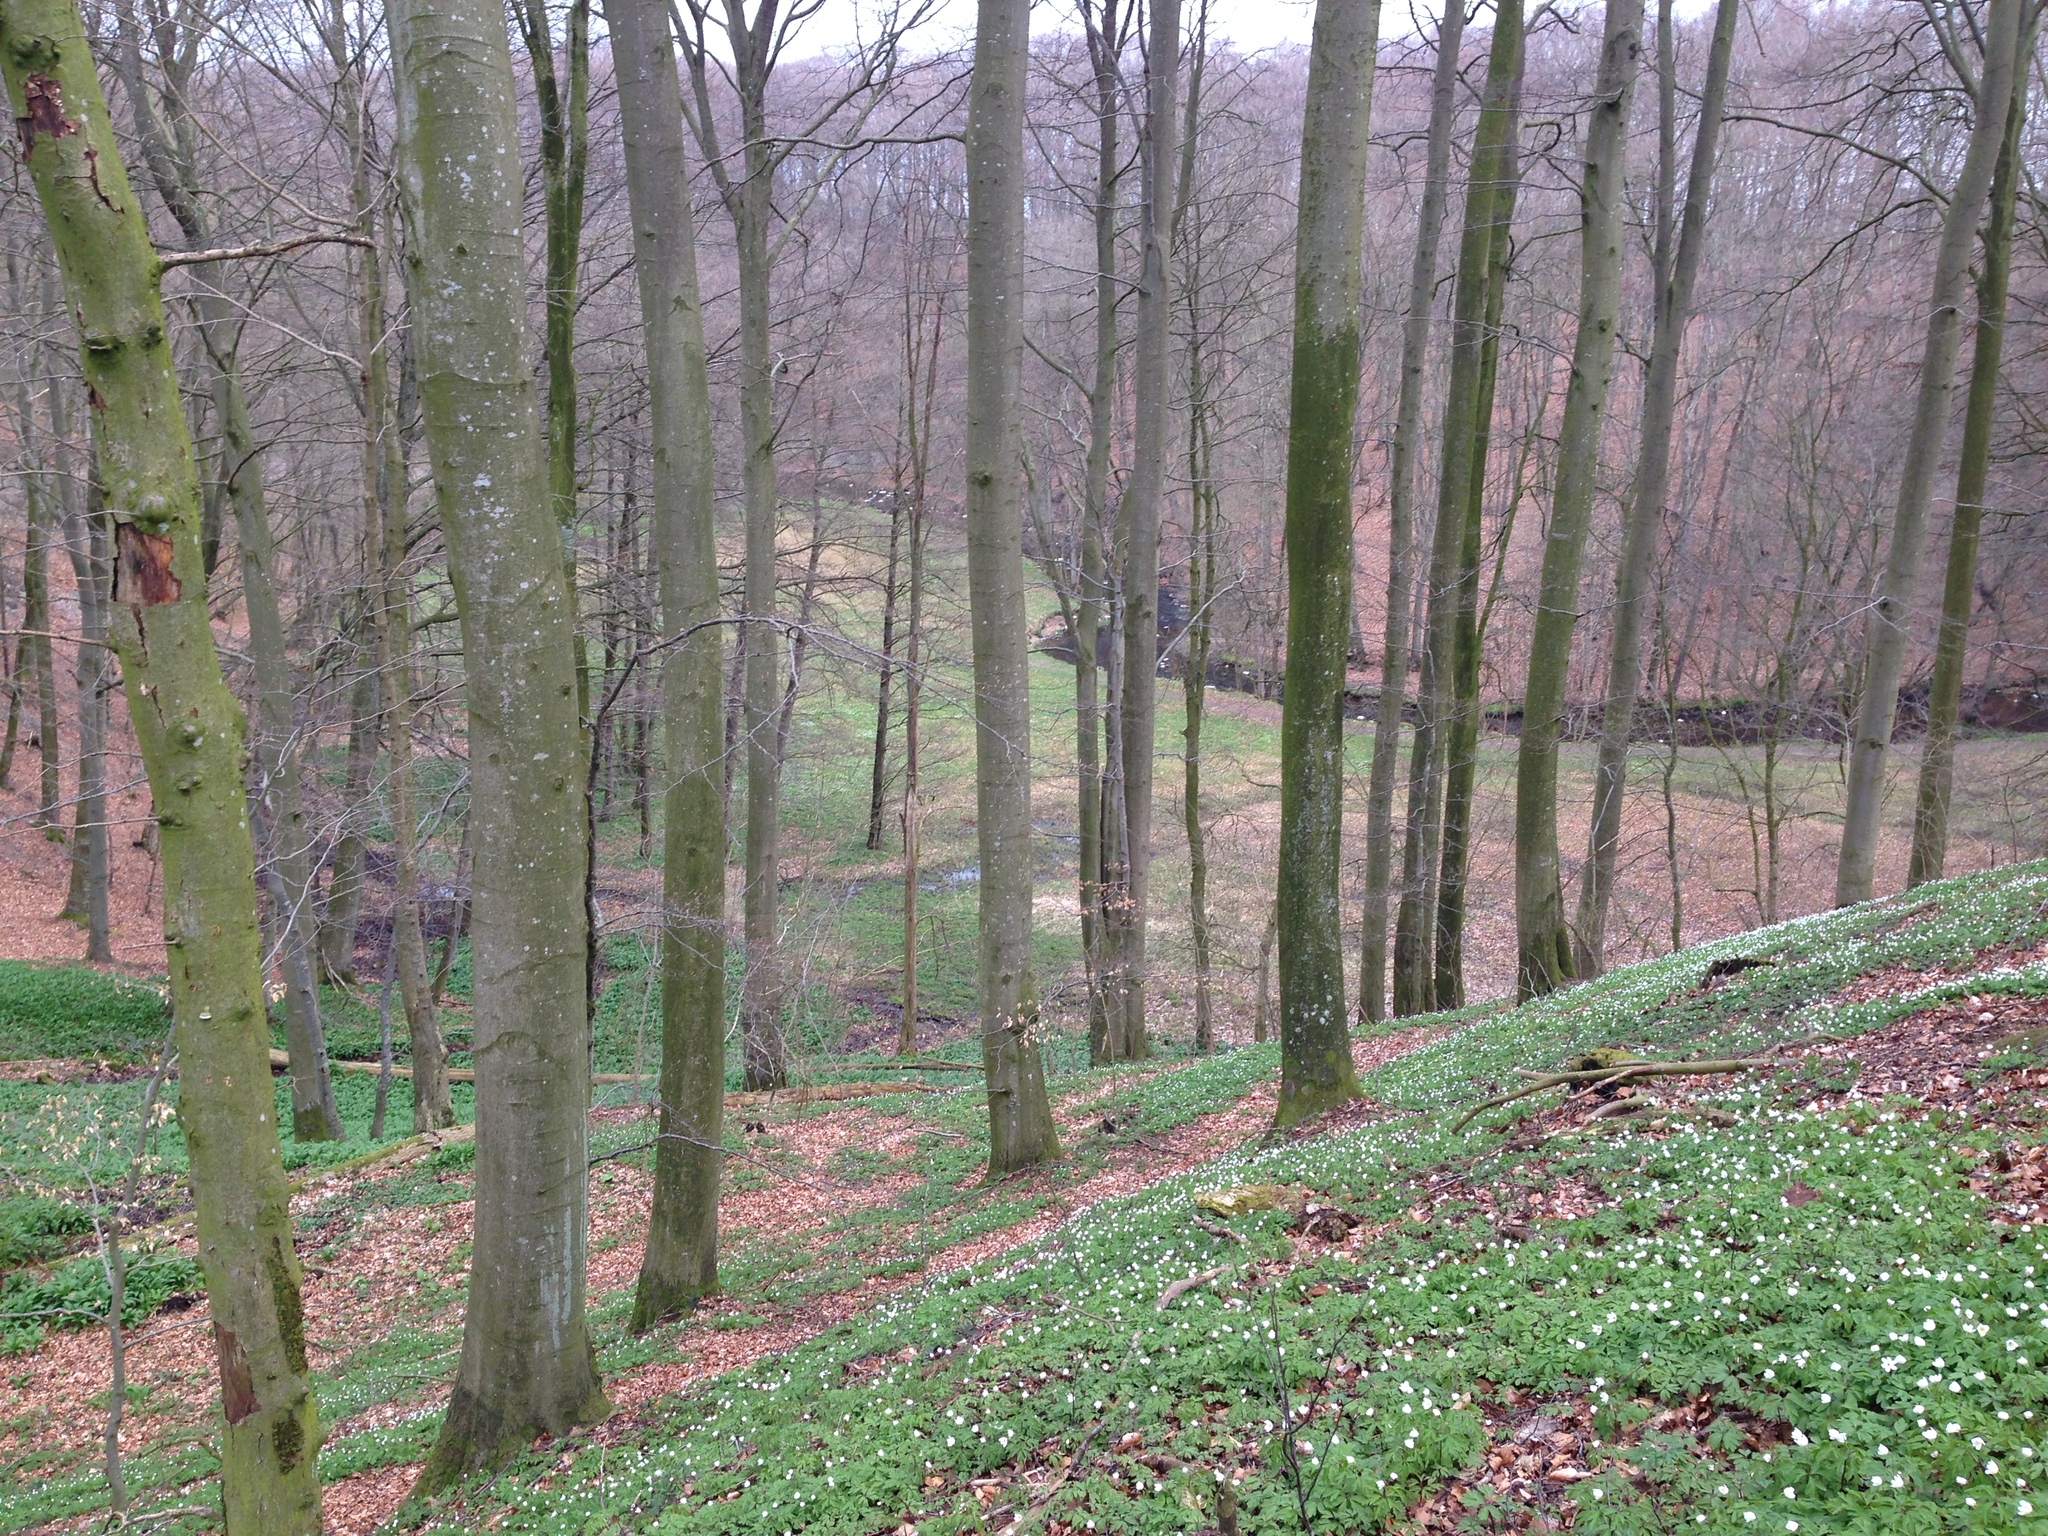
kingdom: Plantae
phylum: Tracheophyta
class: Magnoliopsida
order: Fagales
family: Fagaceae
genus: Fagus
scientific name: Fagus sylvatica
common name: Beech
